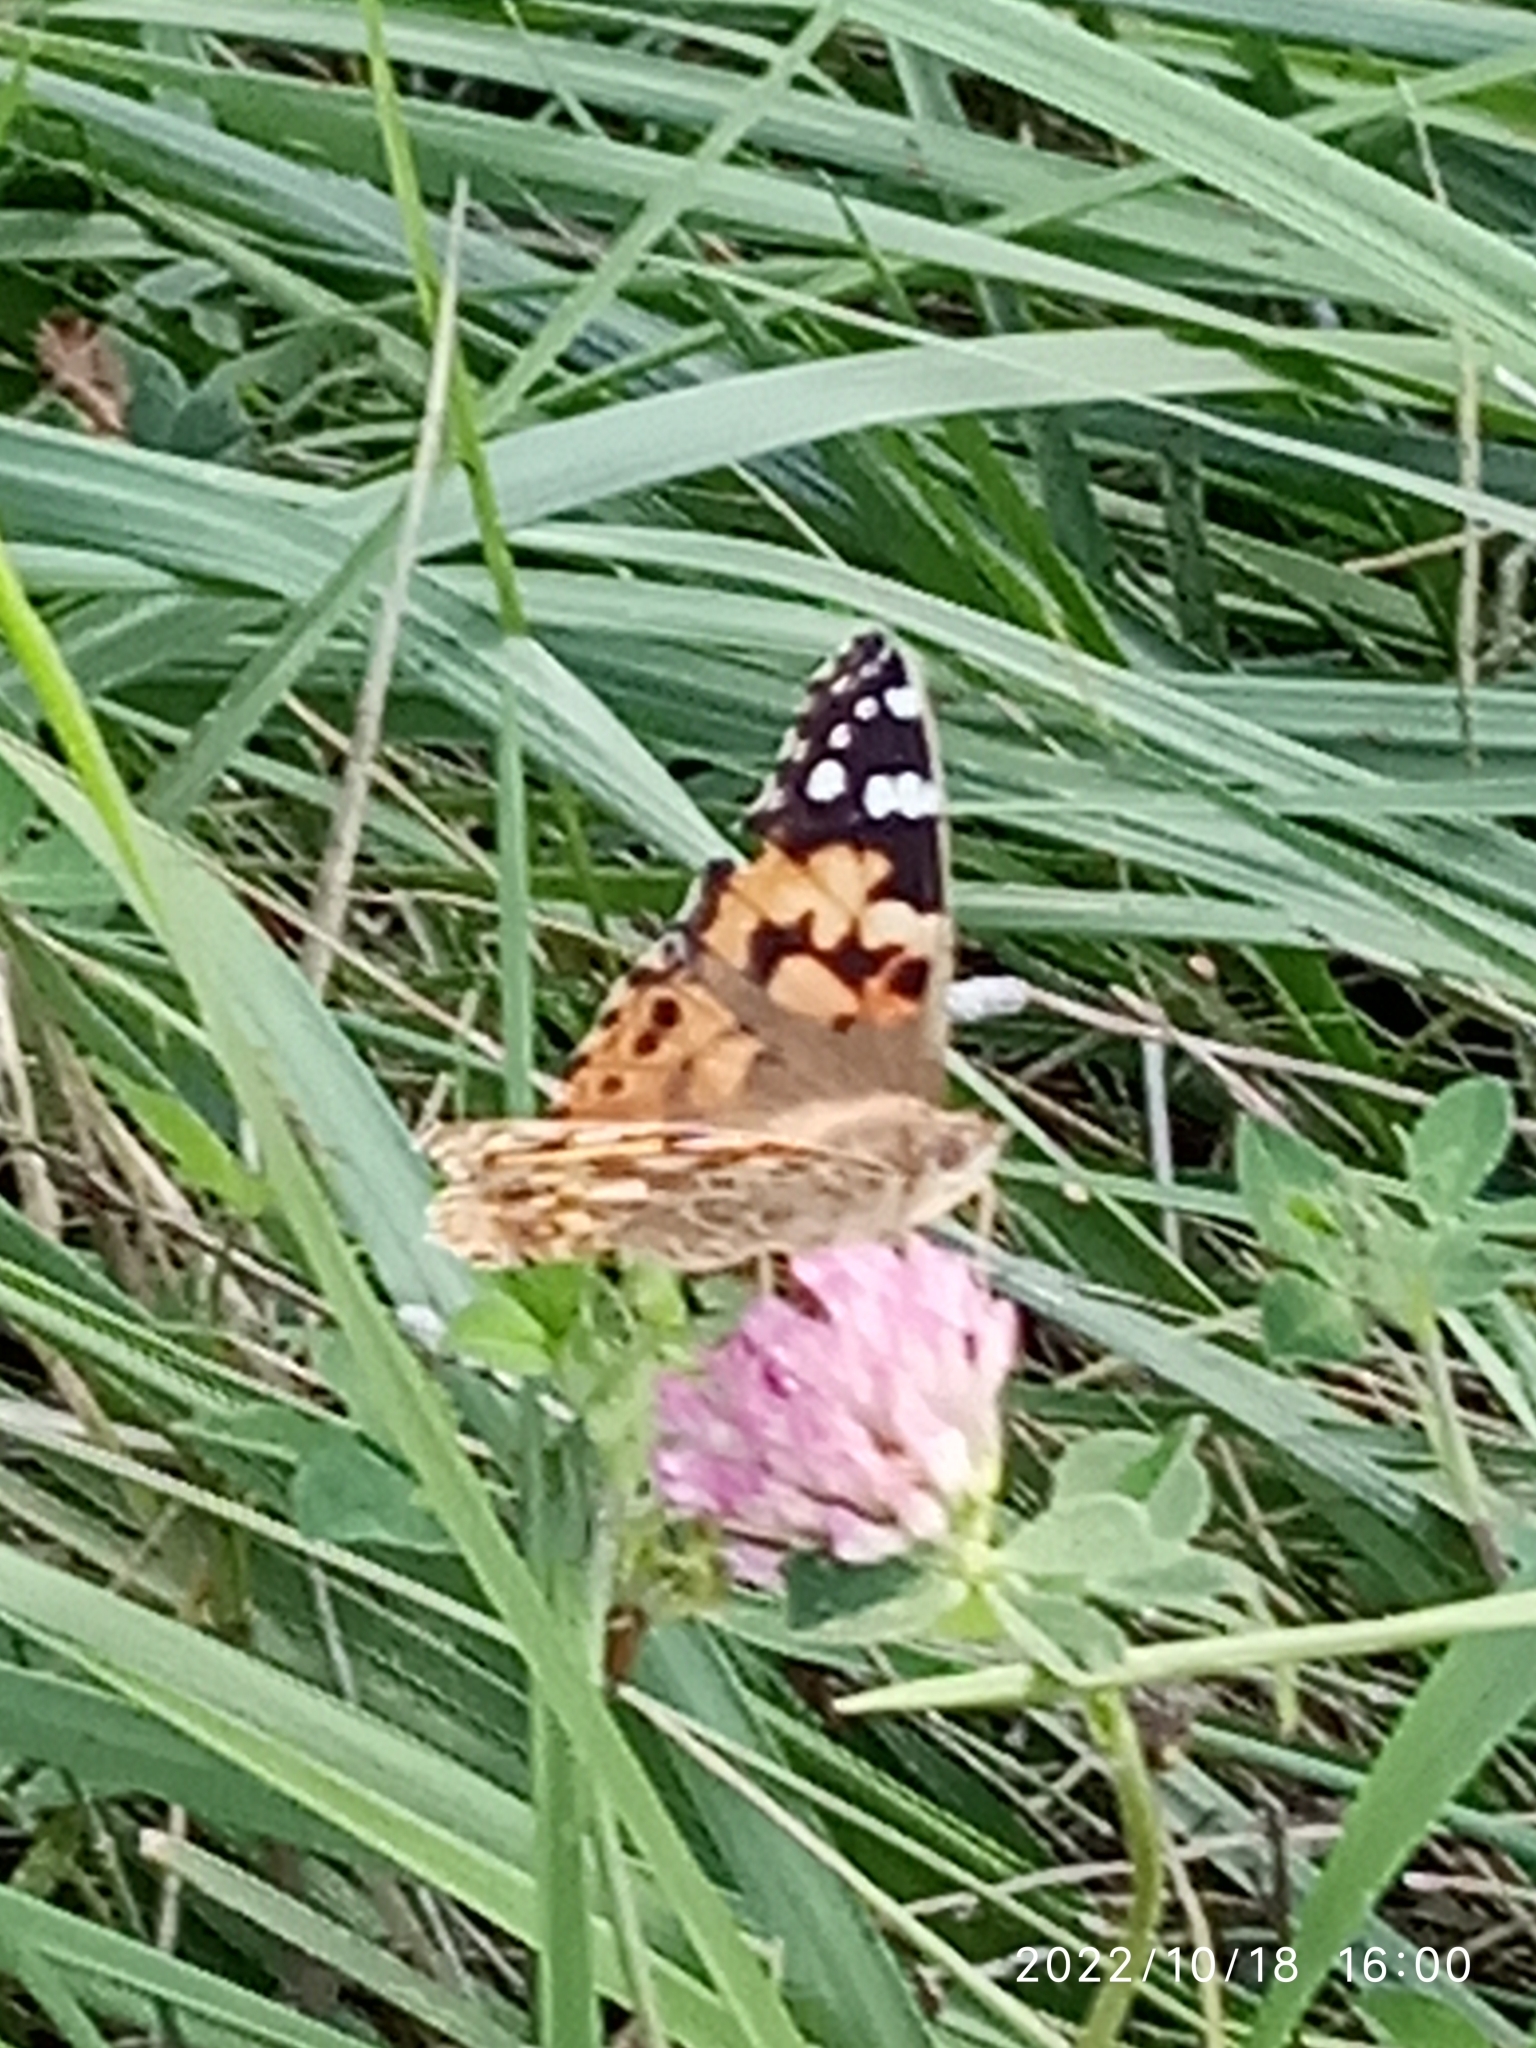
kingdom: Animalia
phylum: Arthropoda
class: Insecta
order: Lepidoptera
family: Nymphalidae
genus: Vanessa
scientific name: Vanessa cardui
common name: Painted lady
